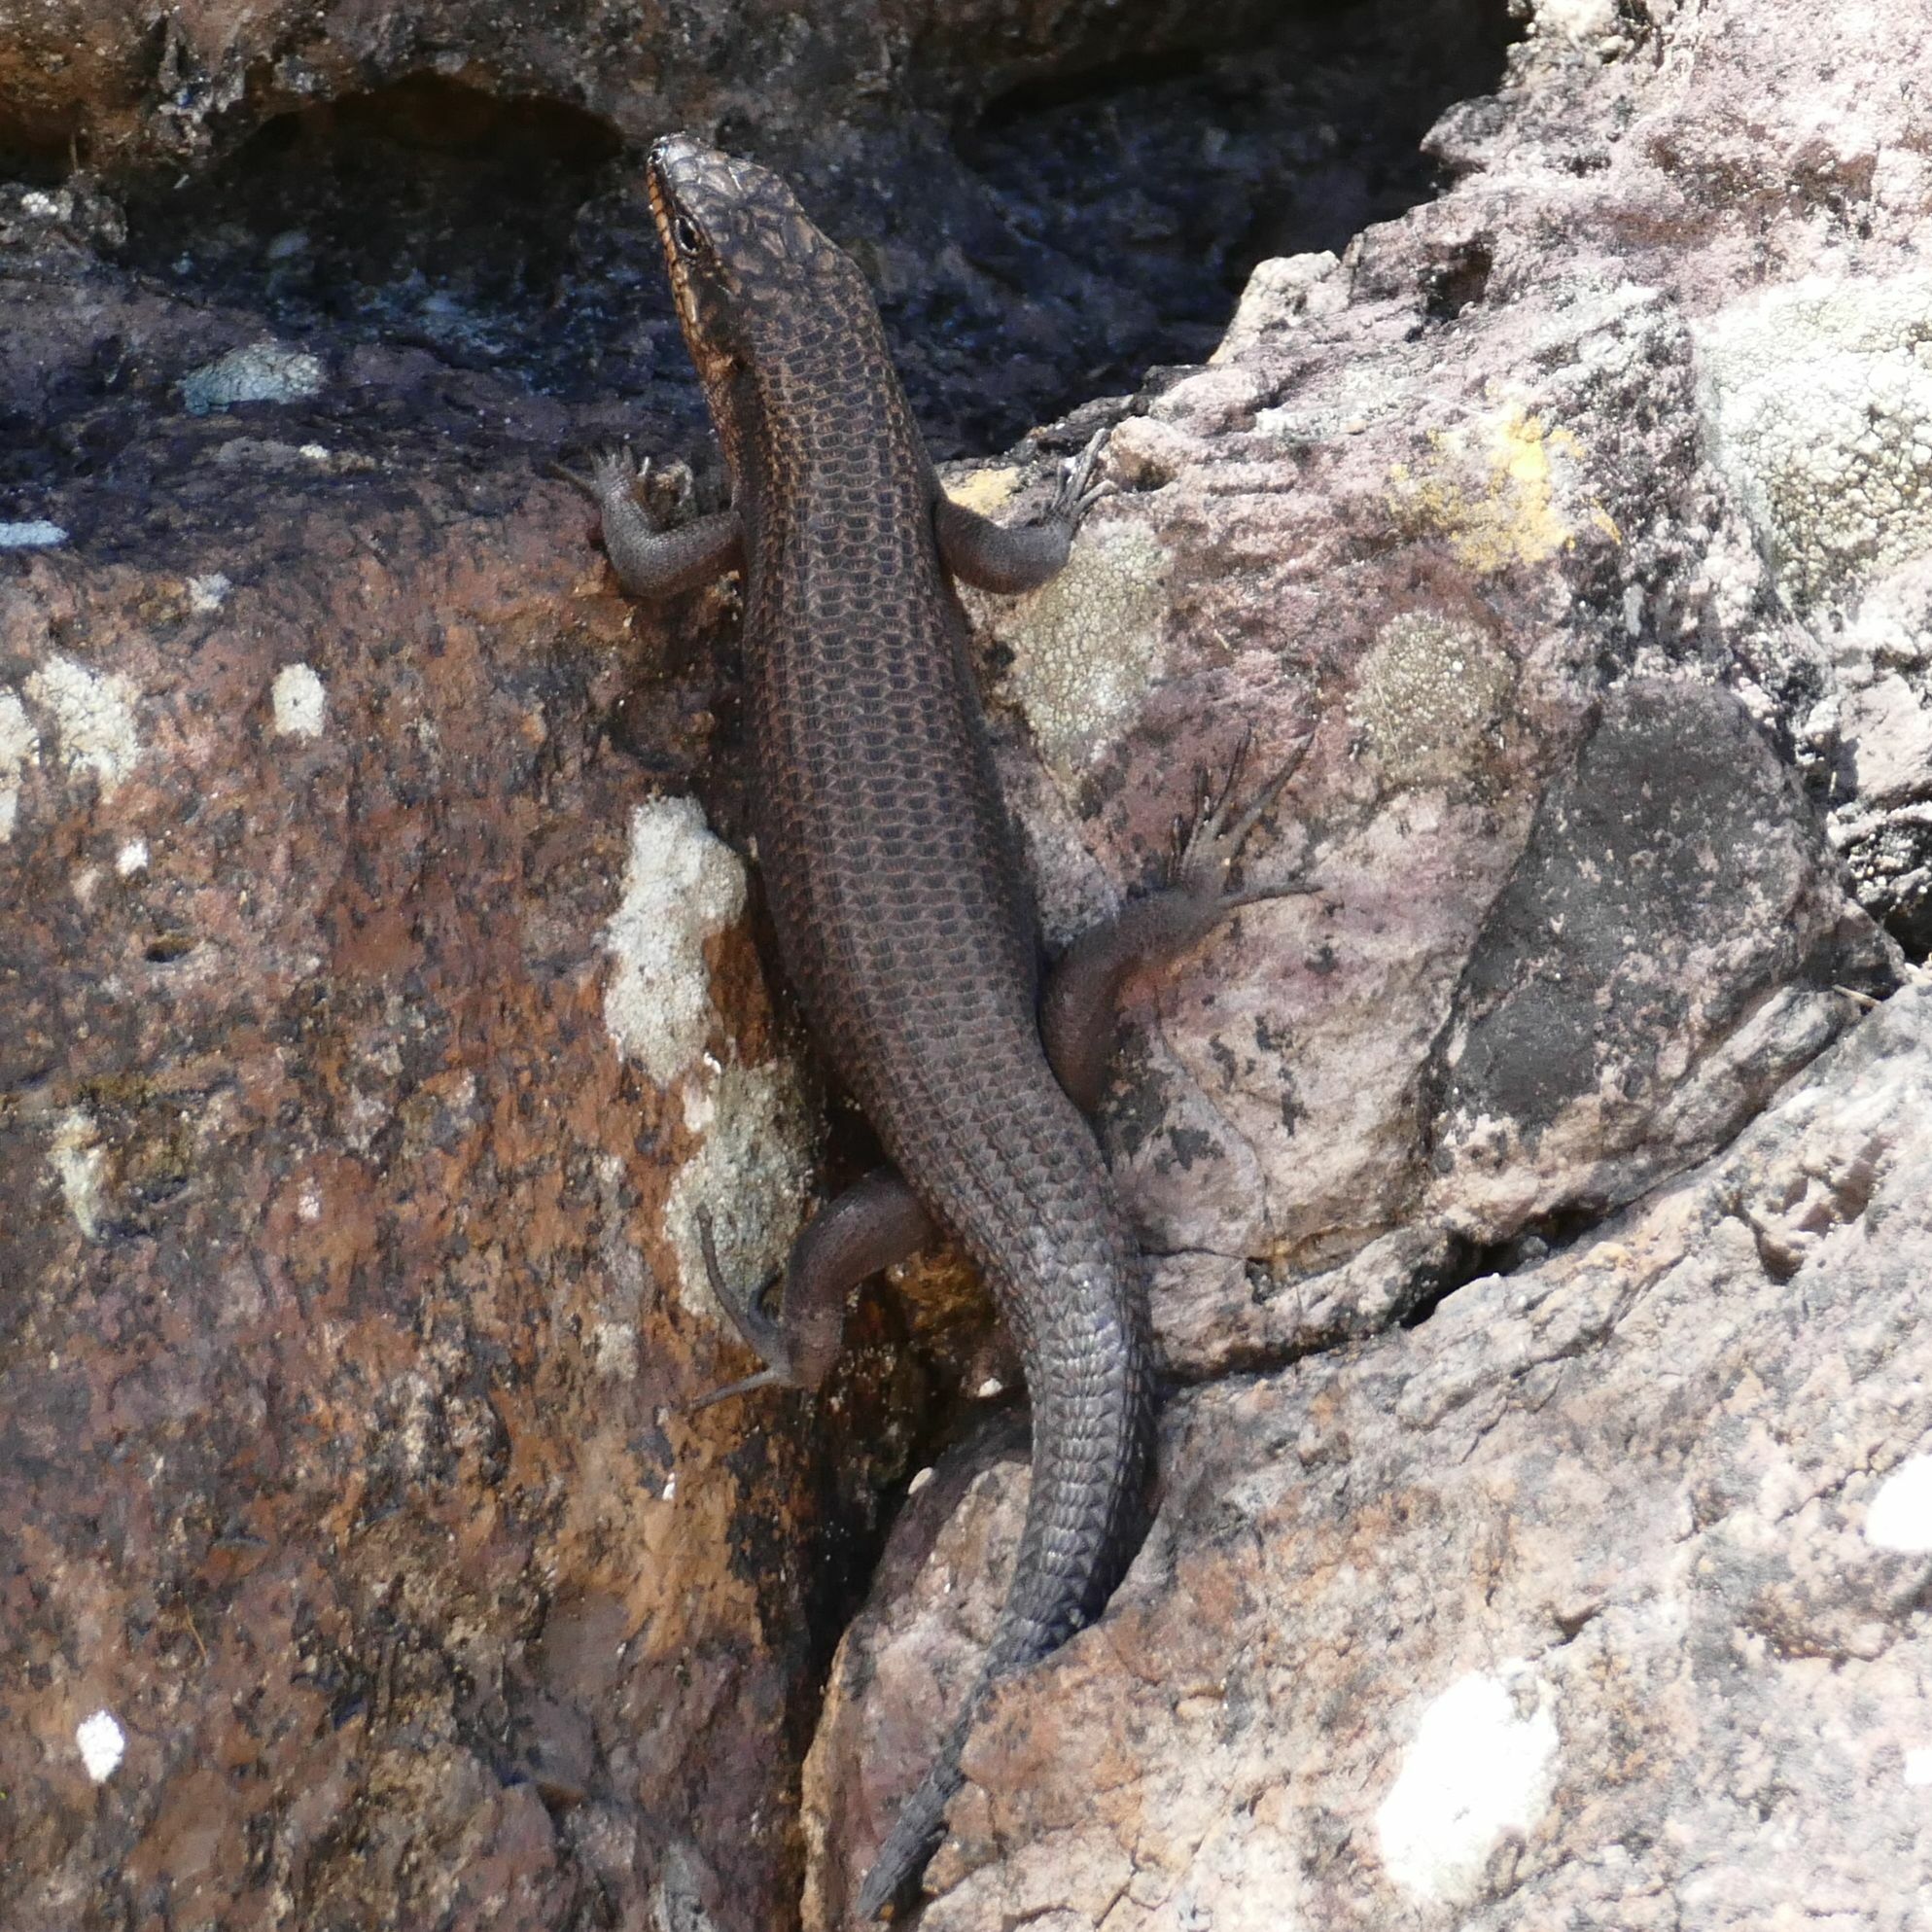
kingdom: Animalia
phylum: Chordata
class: Squamata
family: Scincidae
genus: Egernia
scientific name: Egernia saxatilis
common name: Black crevice-skink
